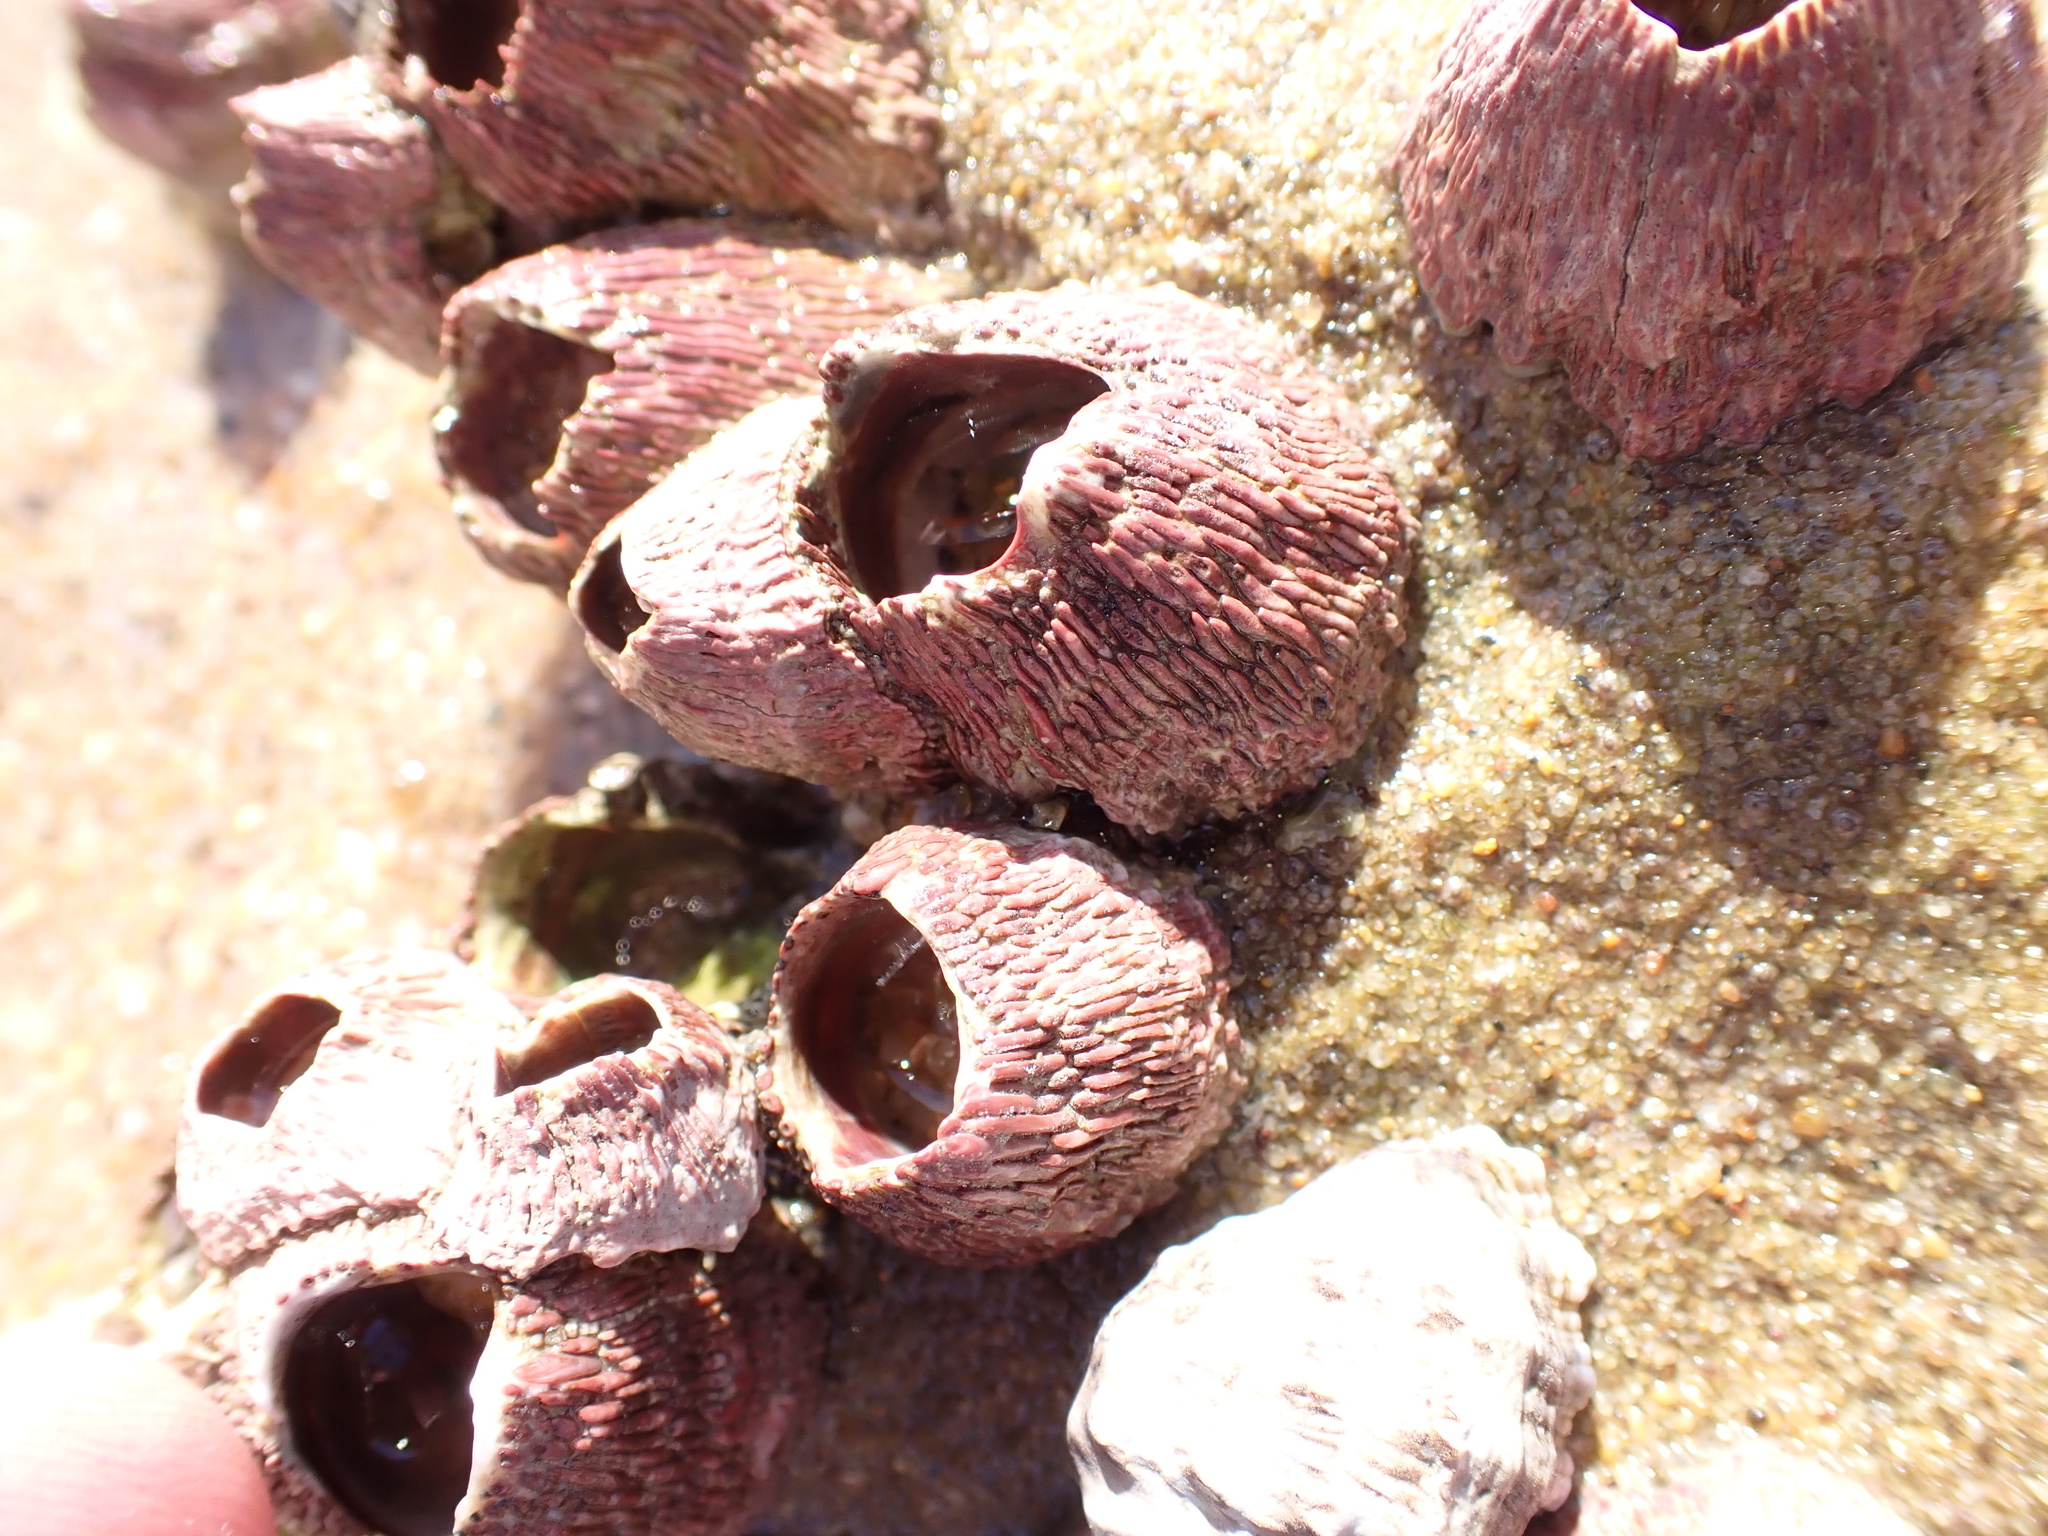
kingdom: Animalia
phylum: Arthropoda
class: Maxillopoda
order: Sessilia
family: Tetraclitidae
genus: Tetraclita
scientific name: Tetraclita rufotincta
